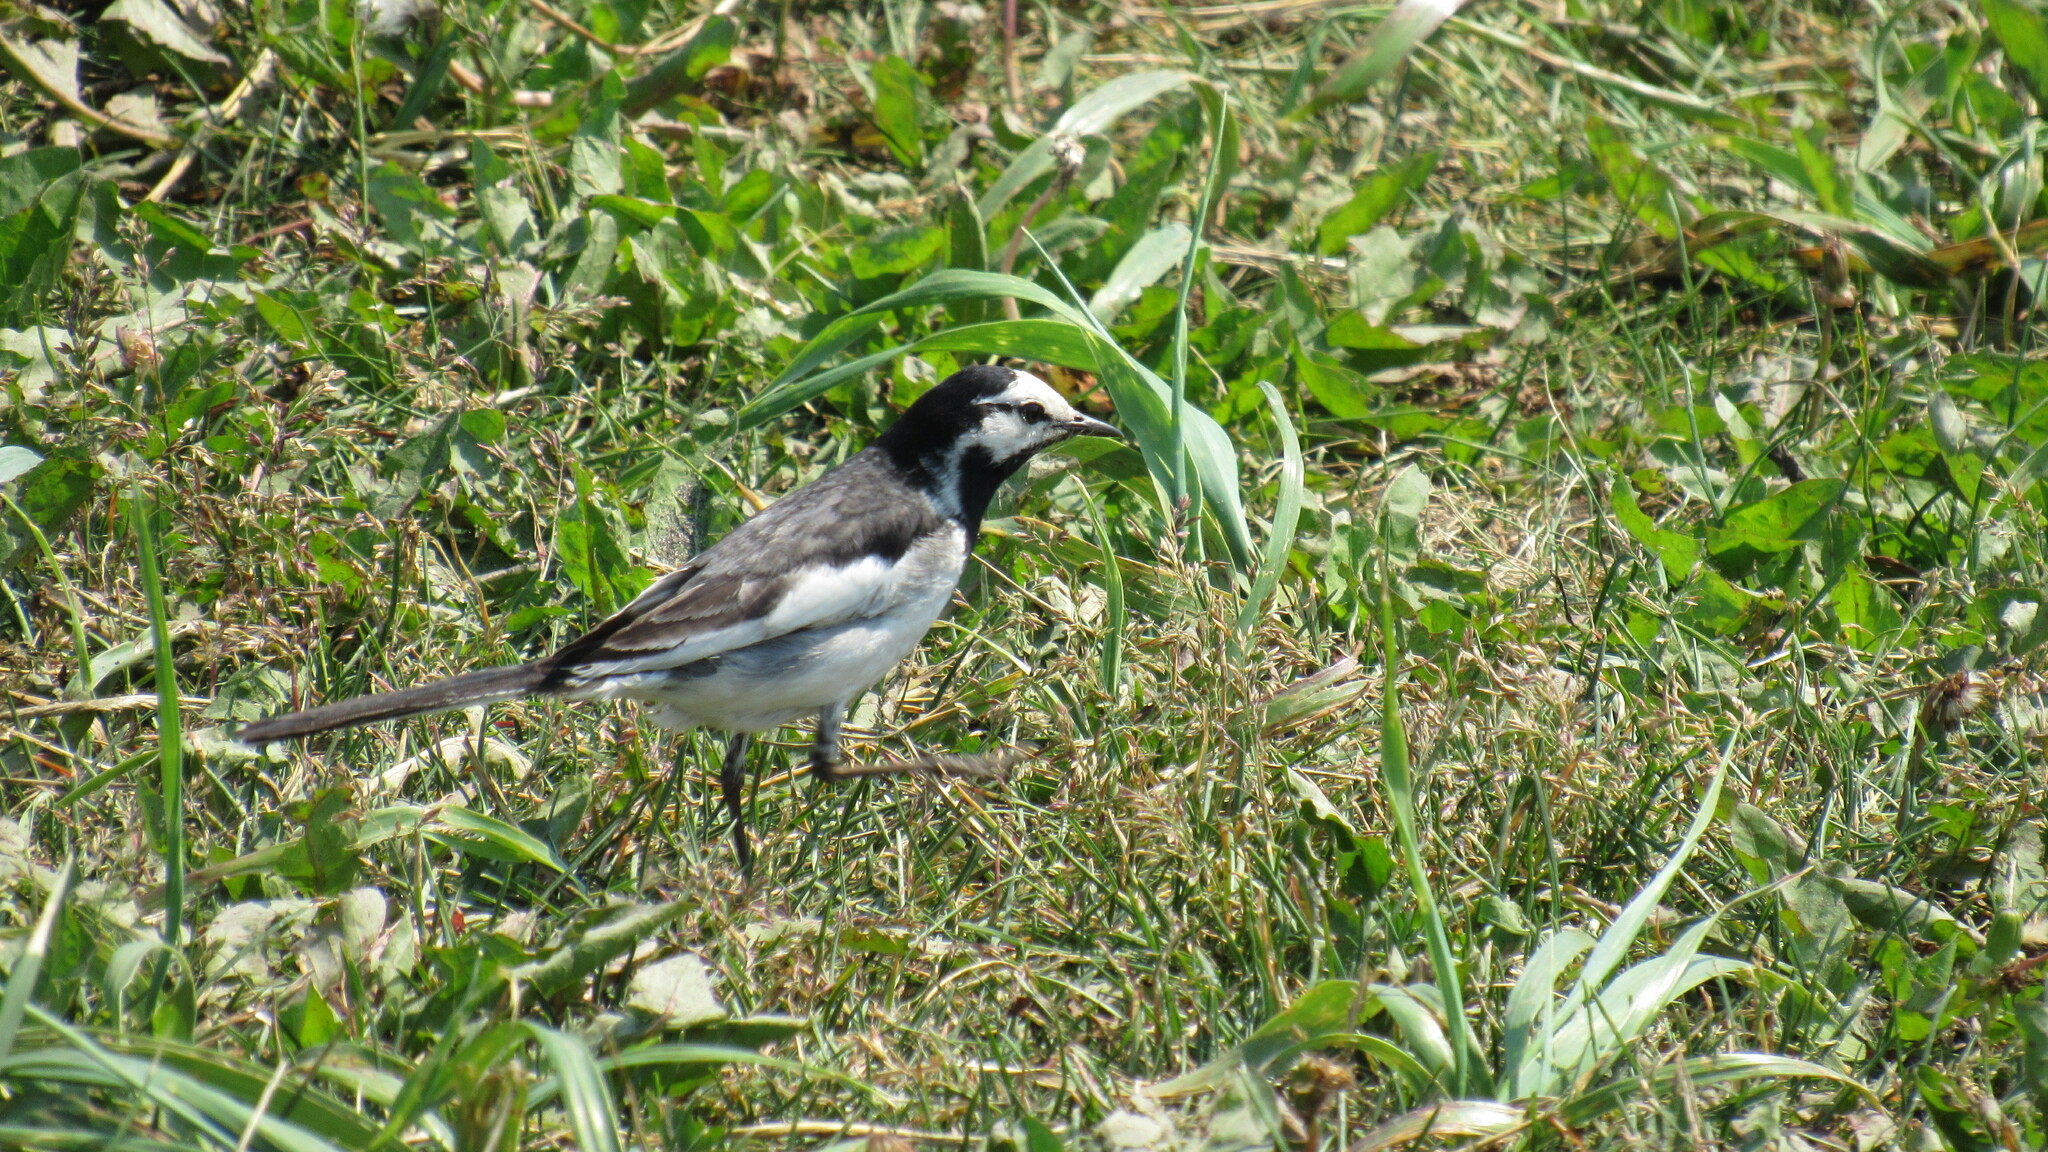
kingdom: Animalia
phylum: Chordata
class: Aves
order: Passeriformes
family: Motacillidae
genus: Motacilla
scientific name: Motacilla alba
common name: White wagtail
